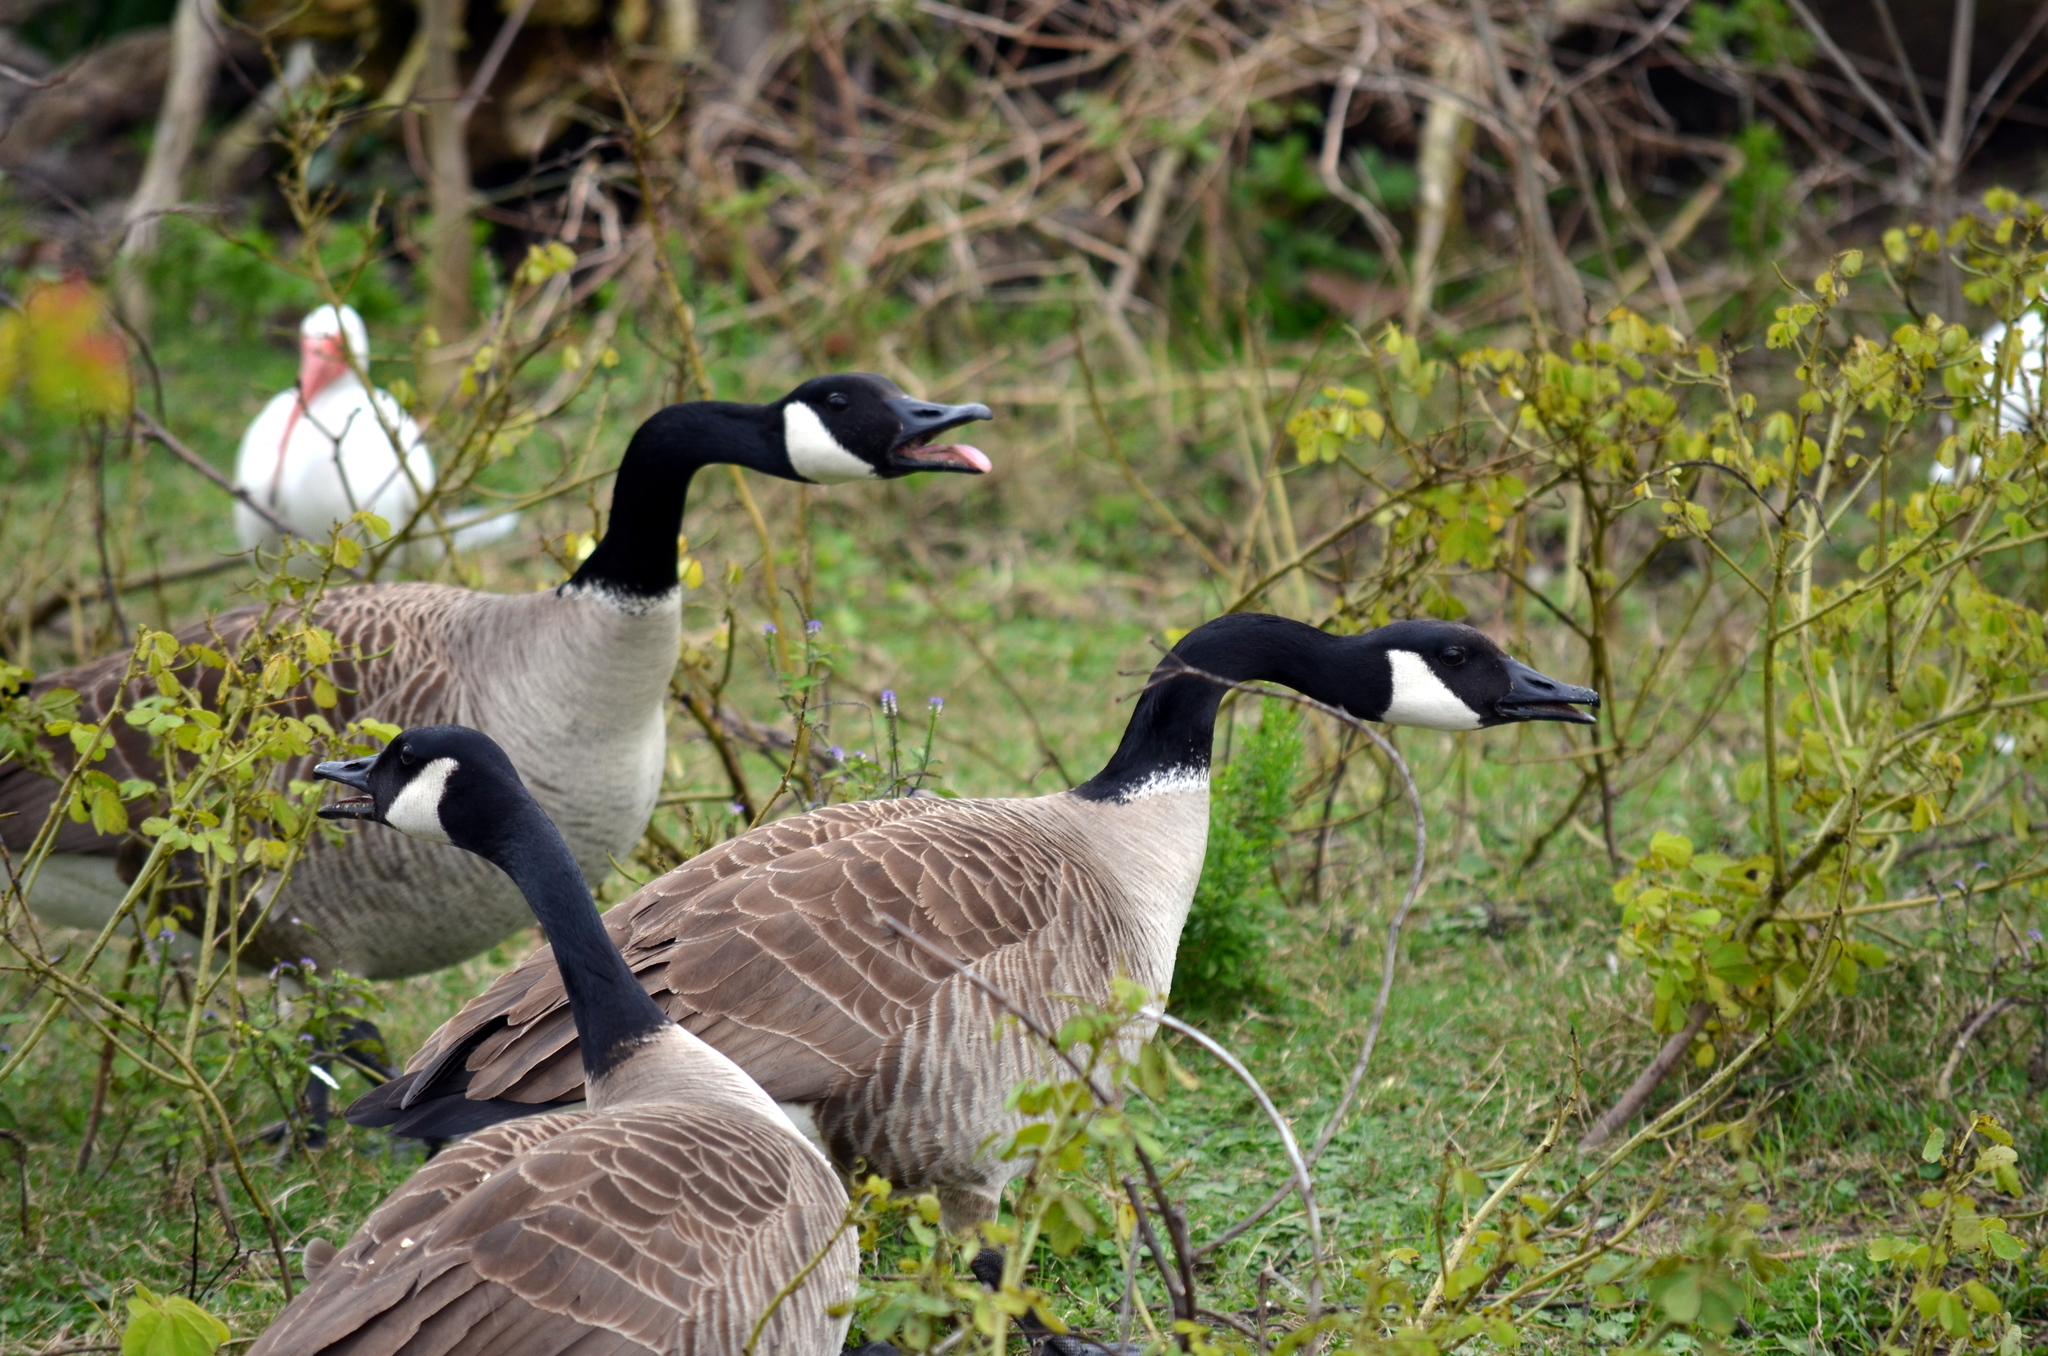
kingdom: Animalia
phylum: Chordata
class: Aves
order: Anseriformes
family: Anatidae
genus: Branta
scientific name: Branta canadensis
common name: Canada goose
